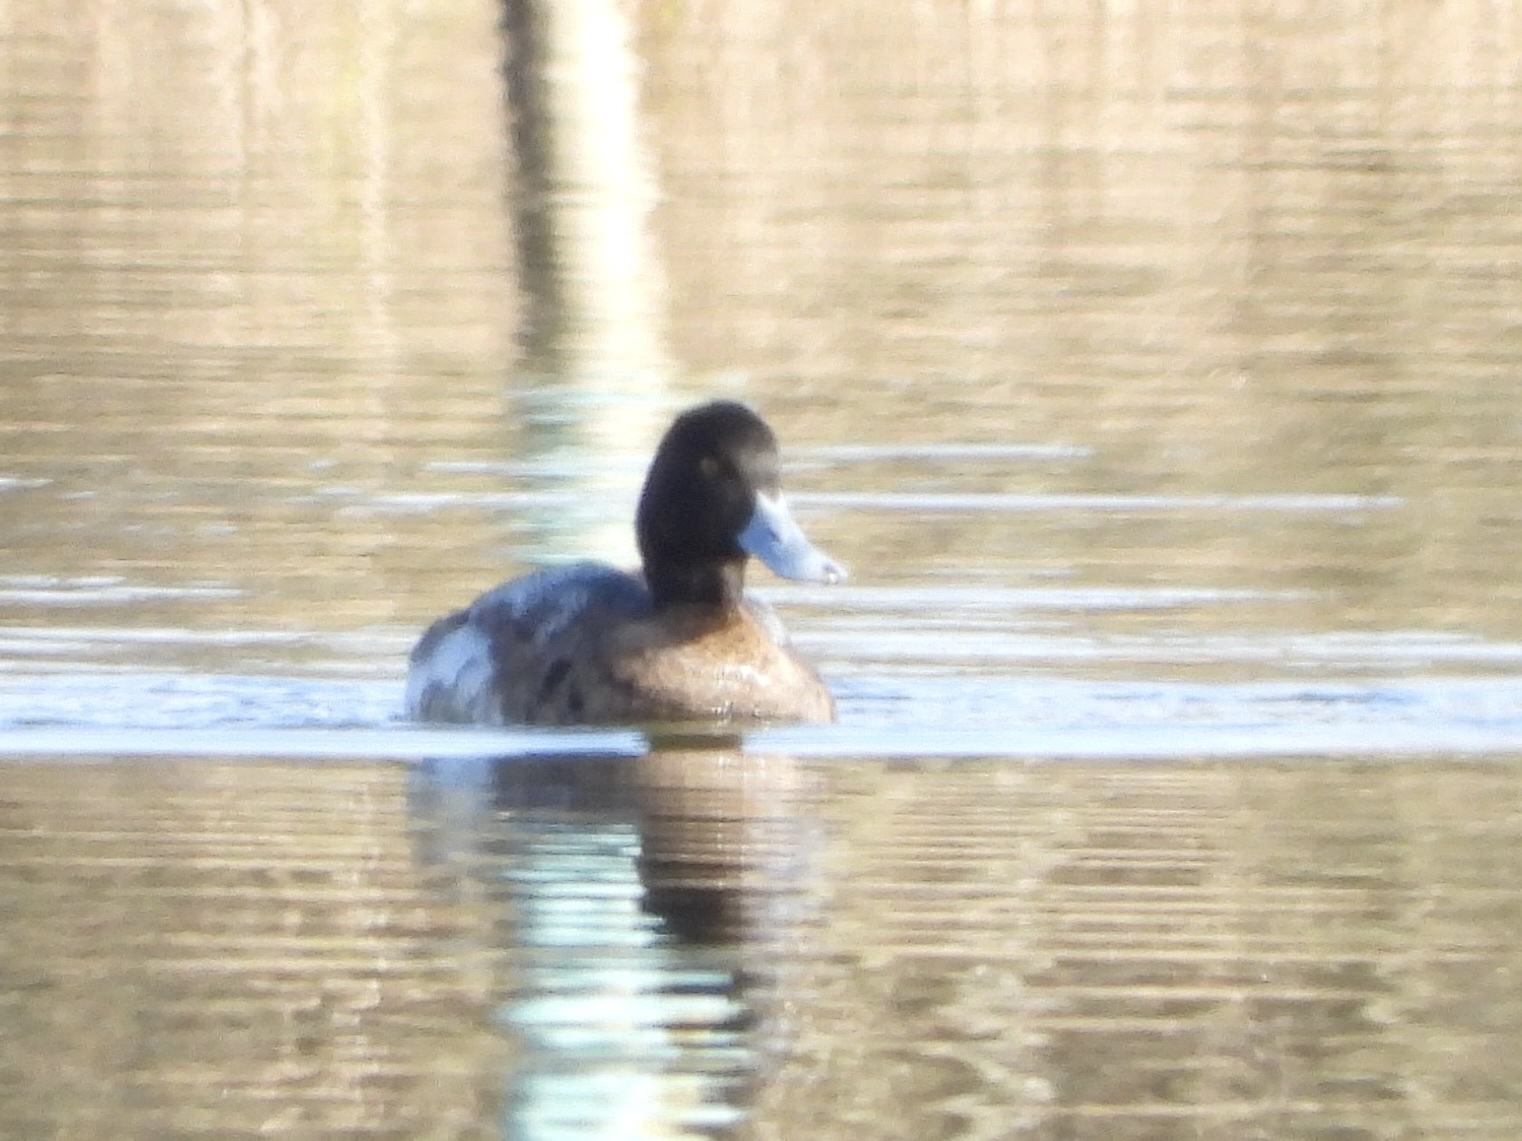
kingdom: Animalia
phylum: Chordata
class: Aves
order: Anseriformes
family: Anatidae
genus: Aythya
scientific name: Aythya affinis
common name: Lesser scaup
